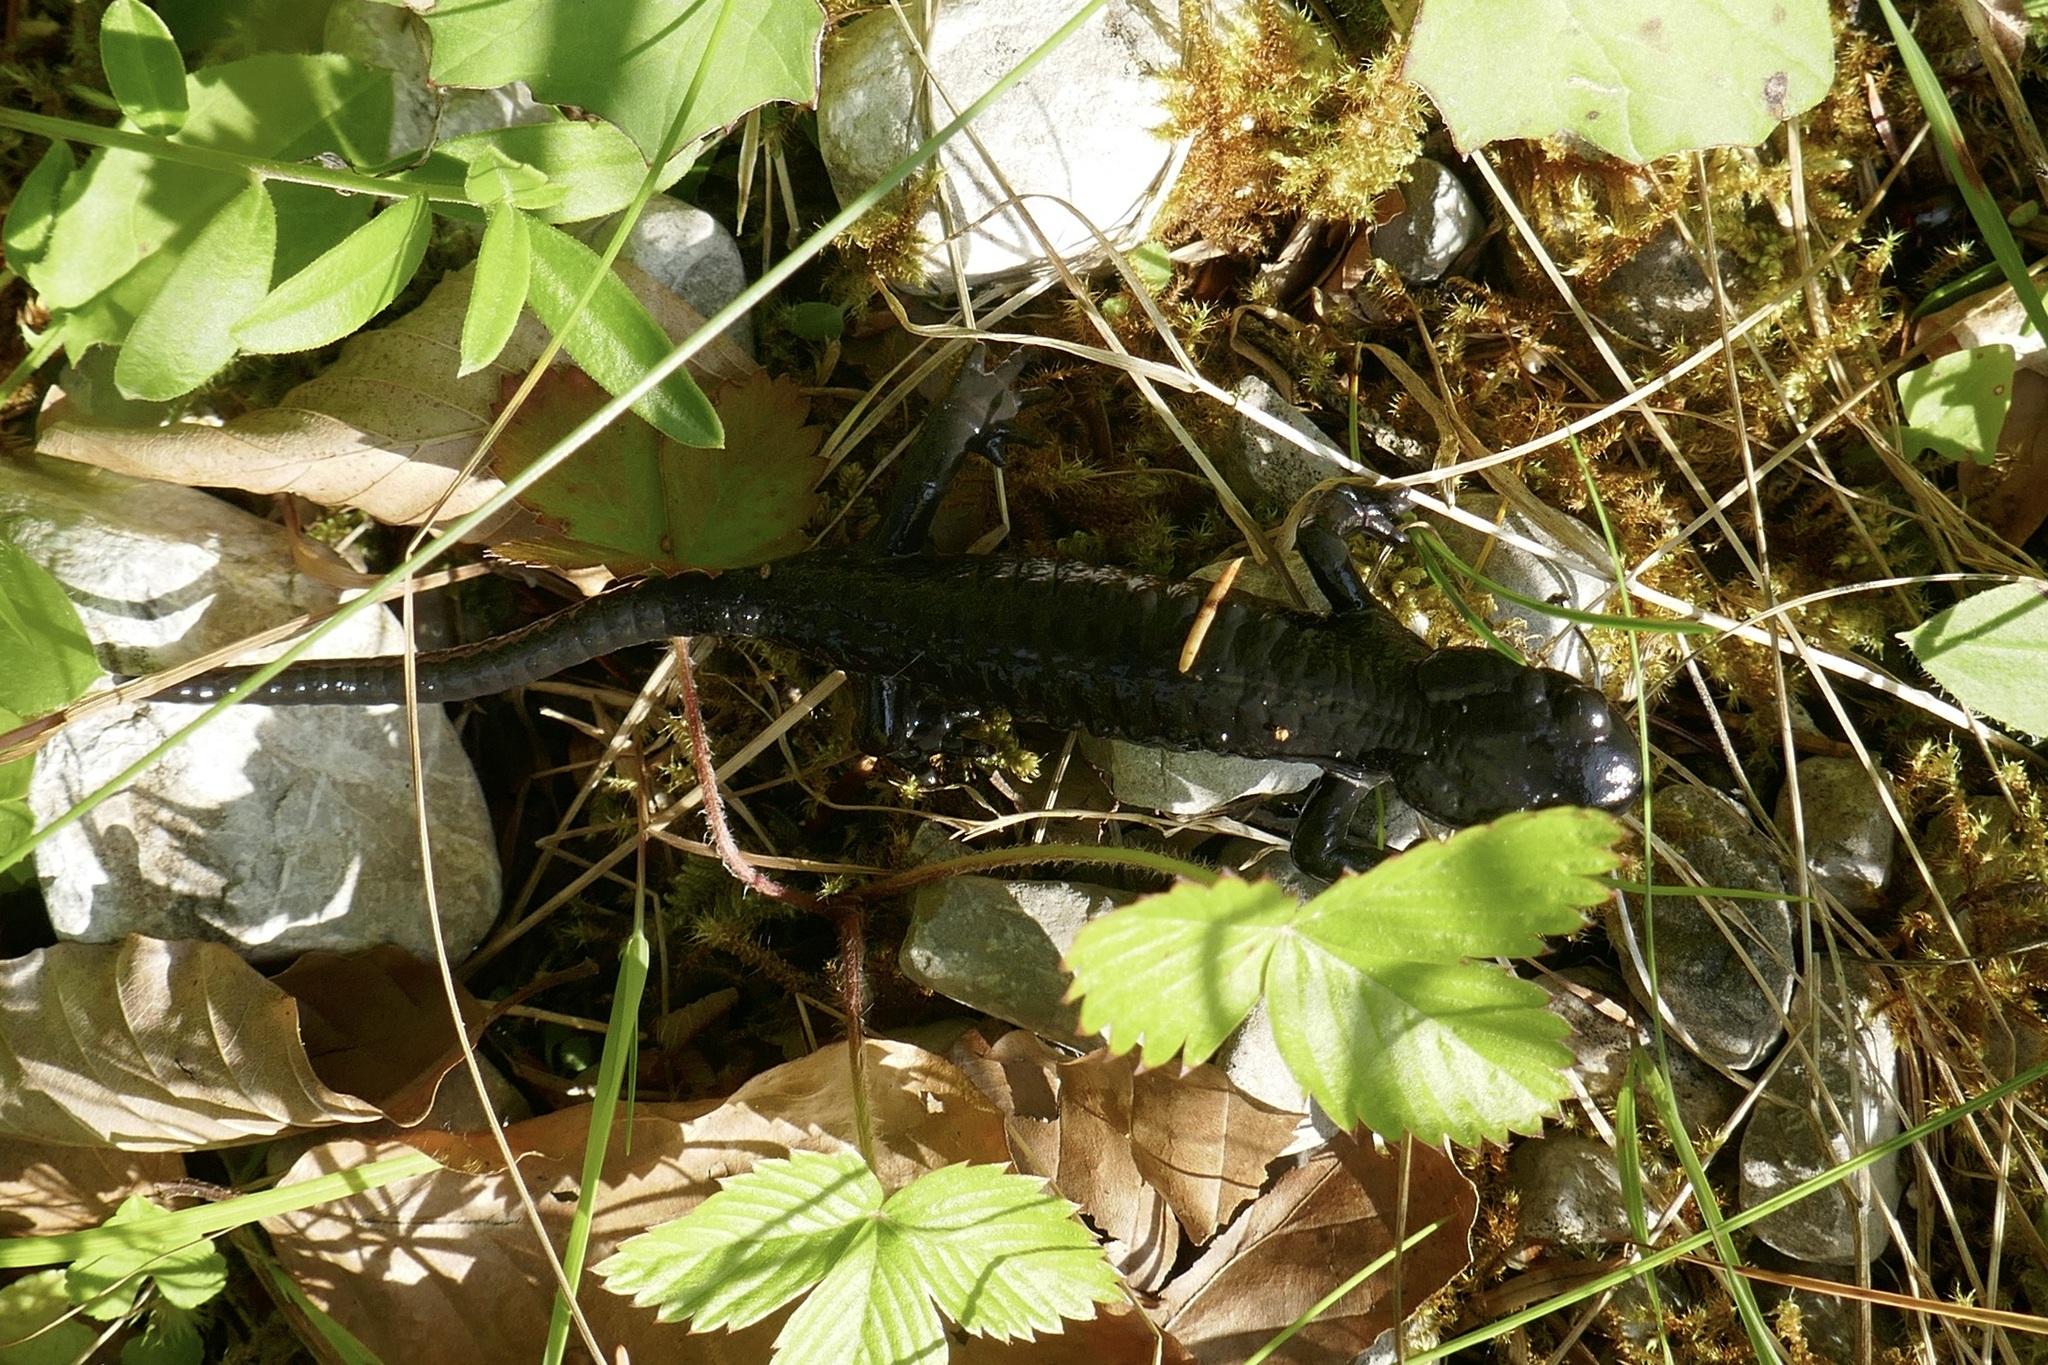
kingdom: Animalia
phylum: Chordata
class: Amphibia
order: Caudata
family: Salamandridae
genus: Salamandra
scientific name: Salamandra atra
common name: Alpine salamander
